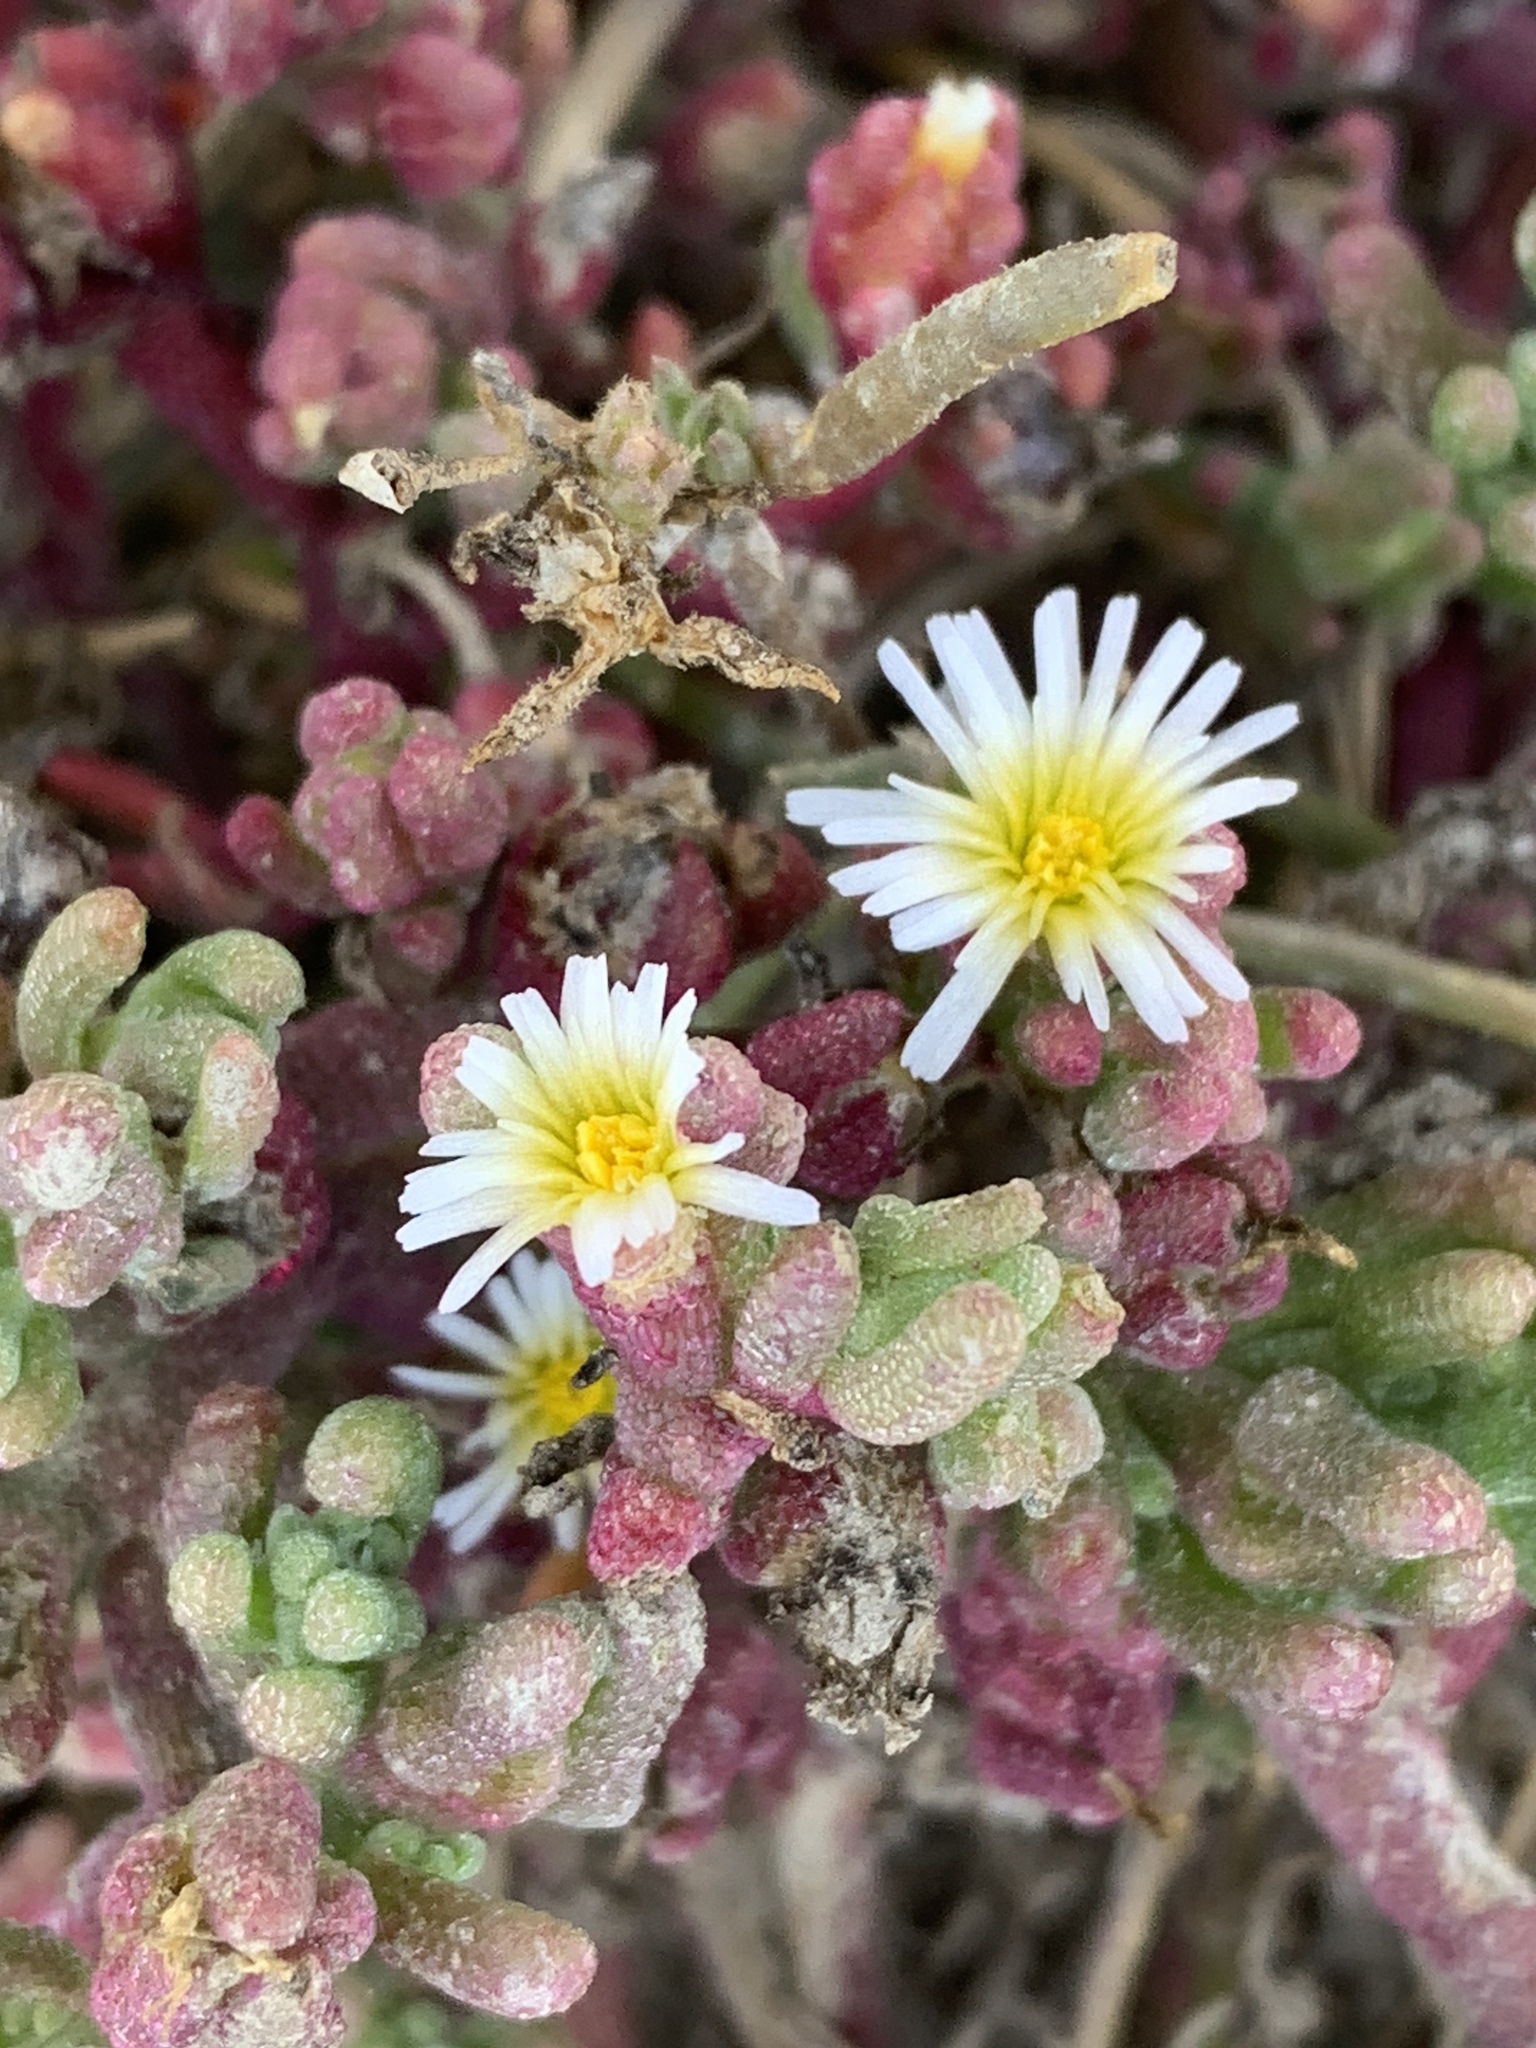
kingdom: Plantae
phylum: Tracheophyta
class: Magnoliopsida
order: Caryophyllales
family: Aizoaceae
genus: Mesembryanthemum
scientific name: Mesembryanthemum nodiflorum
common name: Slenderleaf iceplant
